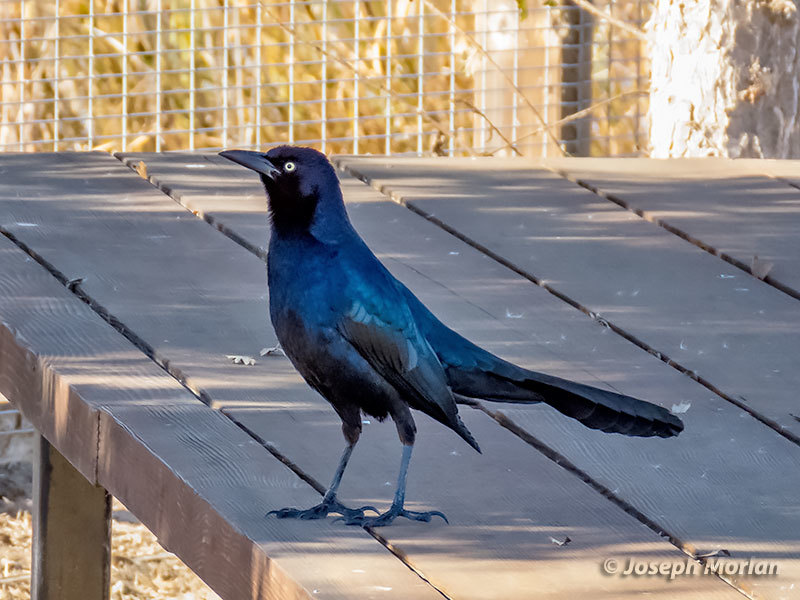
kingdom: Animalia
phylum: Chordata
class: Aves
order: Passeriformes
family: Icteridae
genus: Quiscalus
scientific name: Quiscalus mexicanus
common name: Great-tailed grackle
